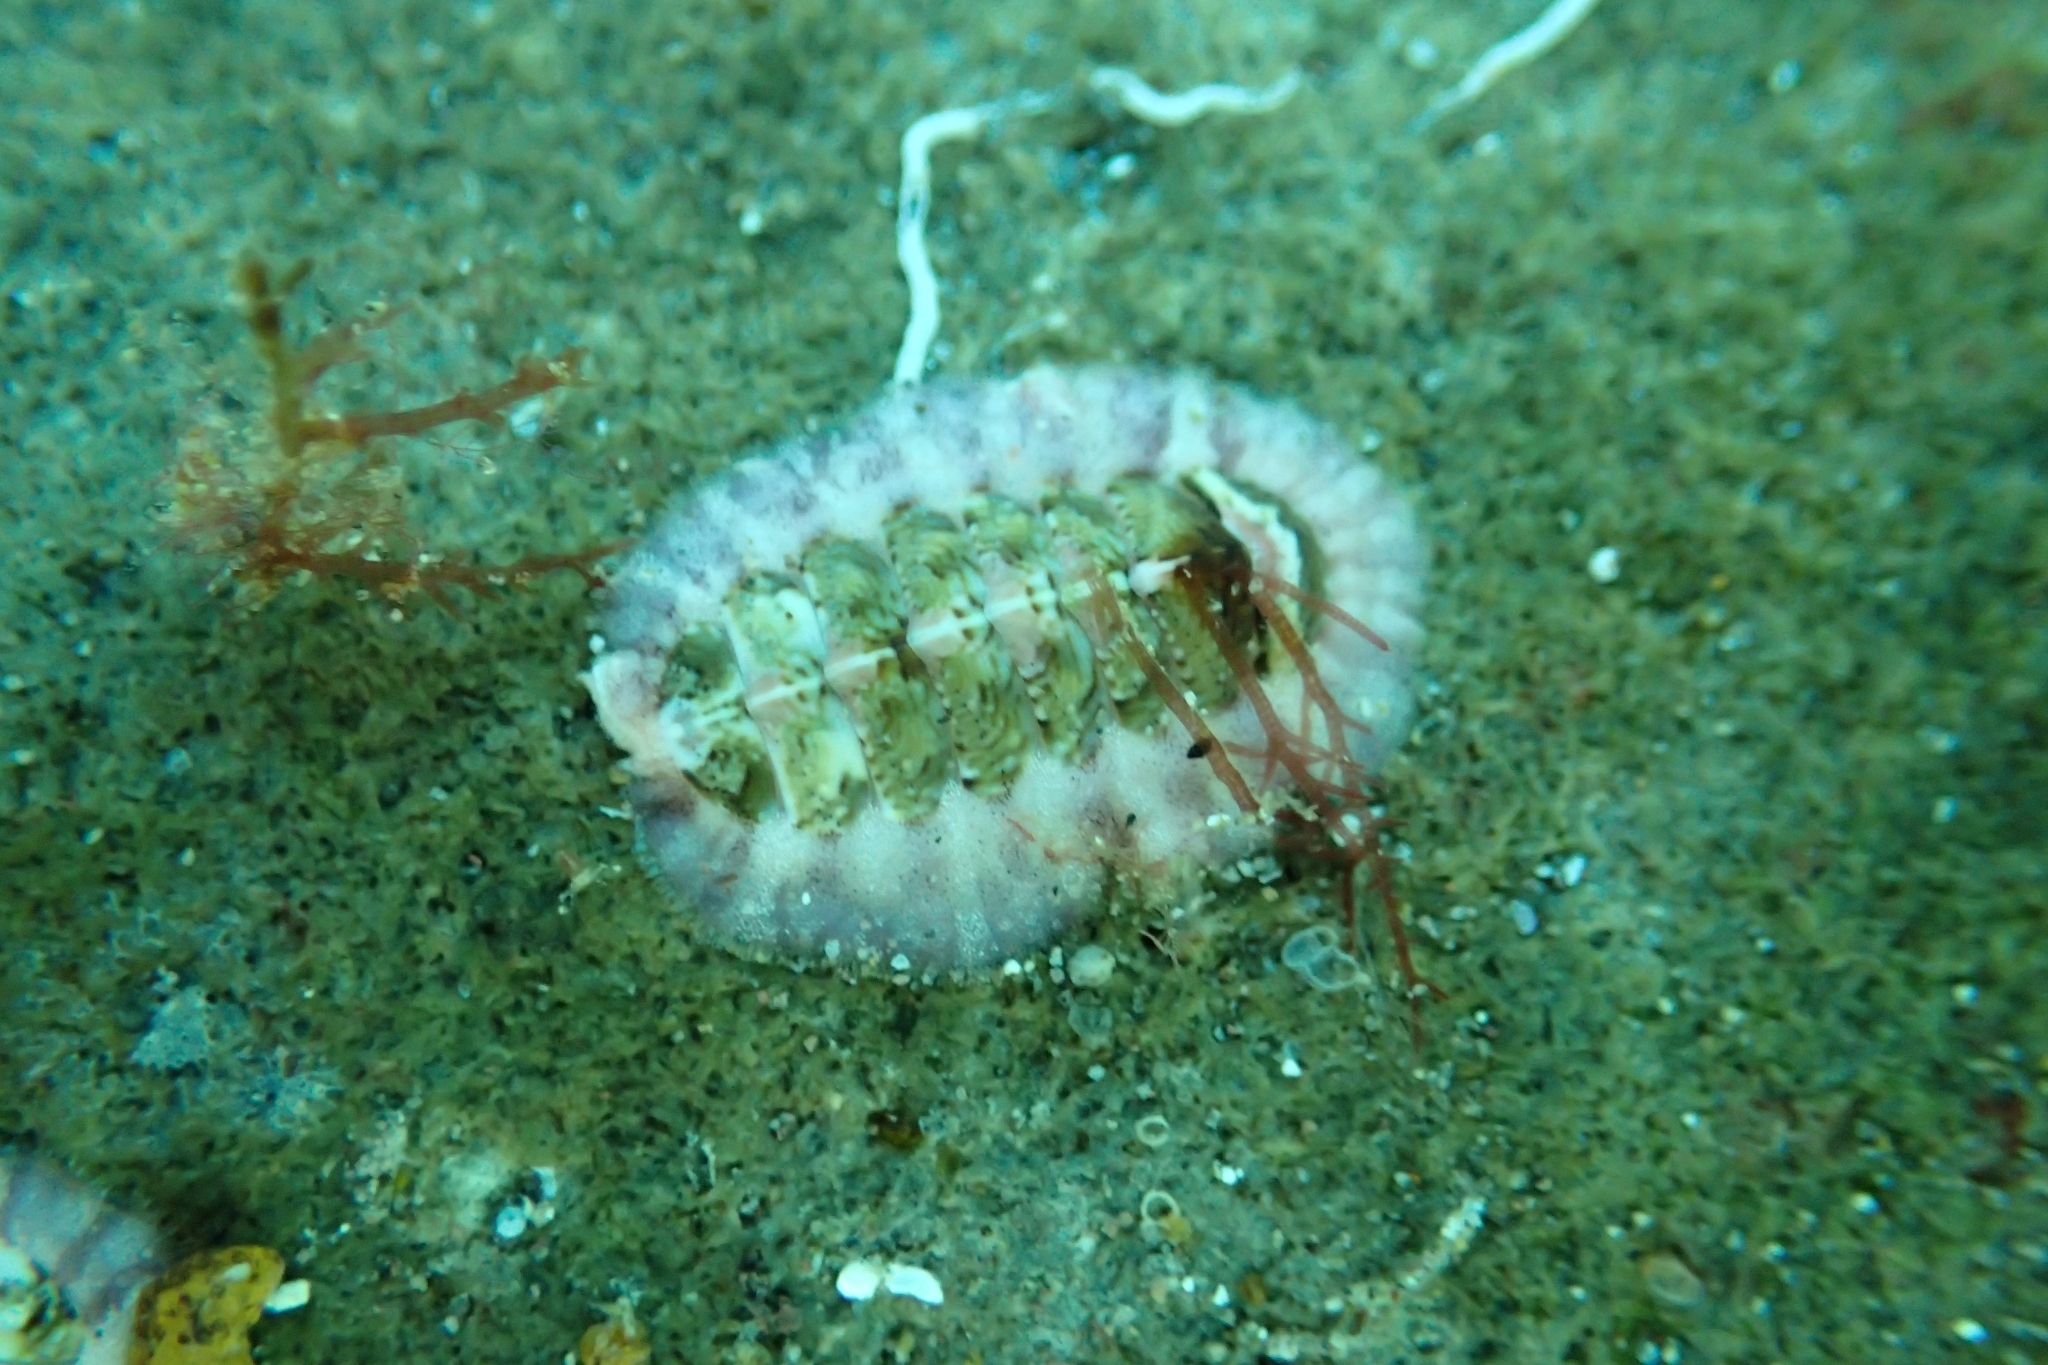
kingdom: Animalia
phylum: Mollusca
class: Polyplacophora
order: Chitonida
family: Chitonidae
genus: Onithochiton
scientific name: Onithochiton neglectus
